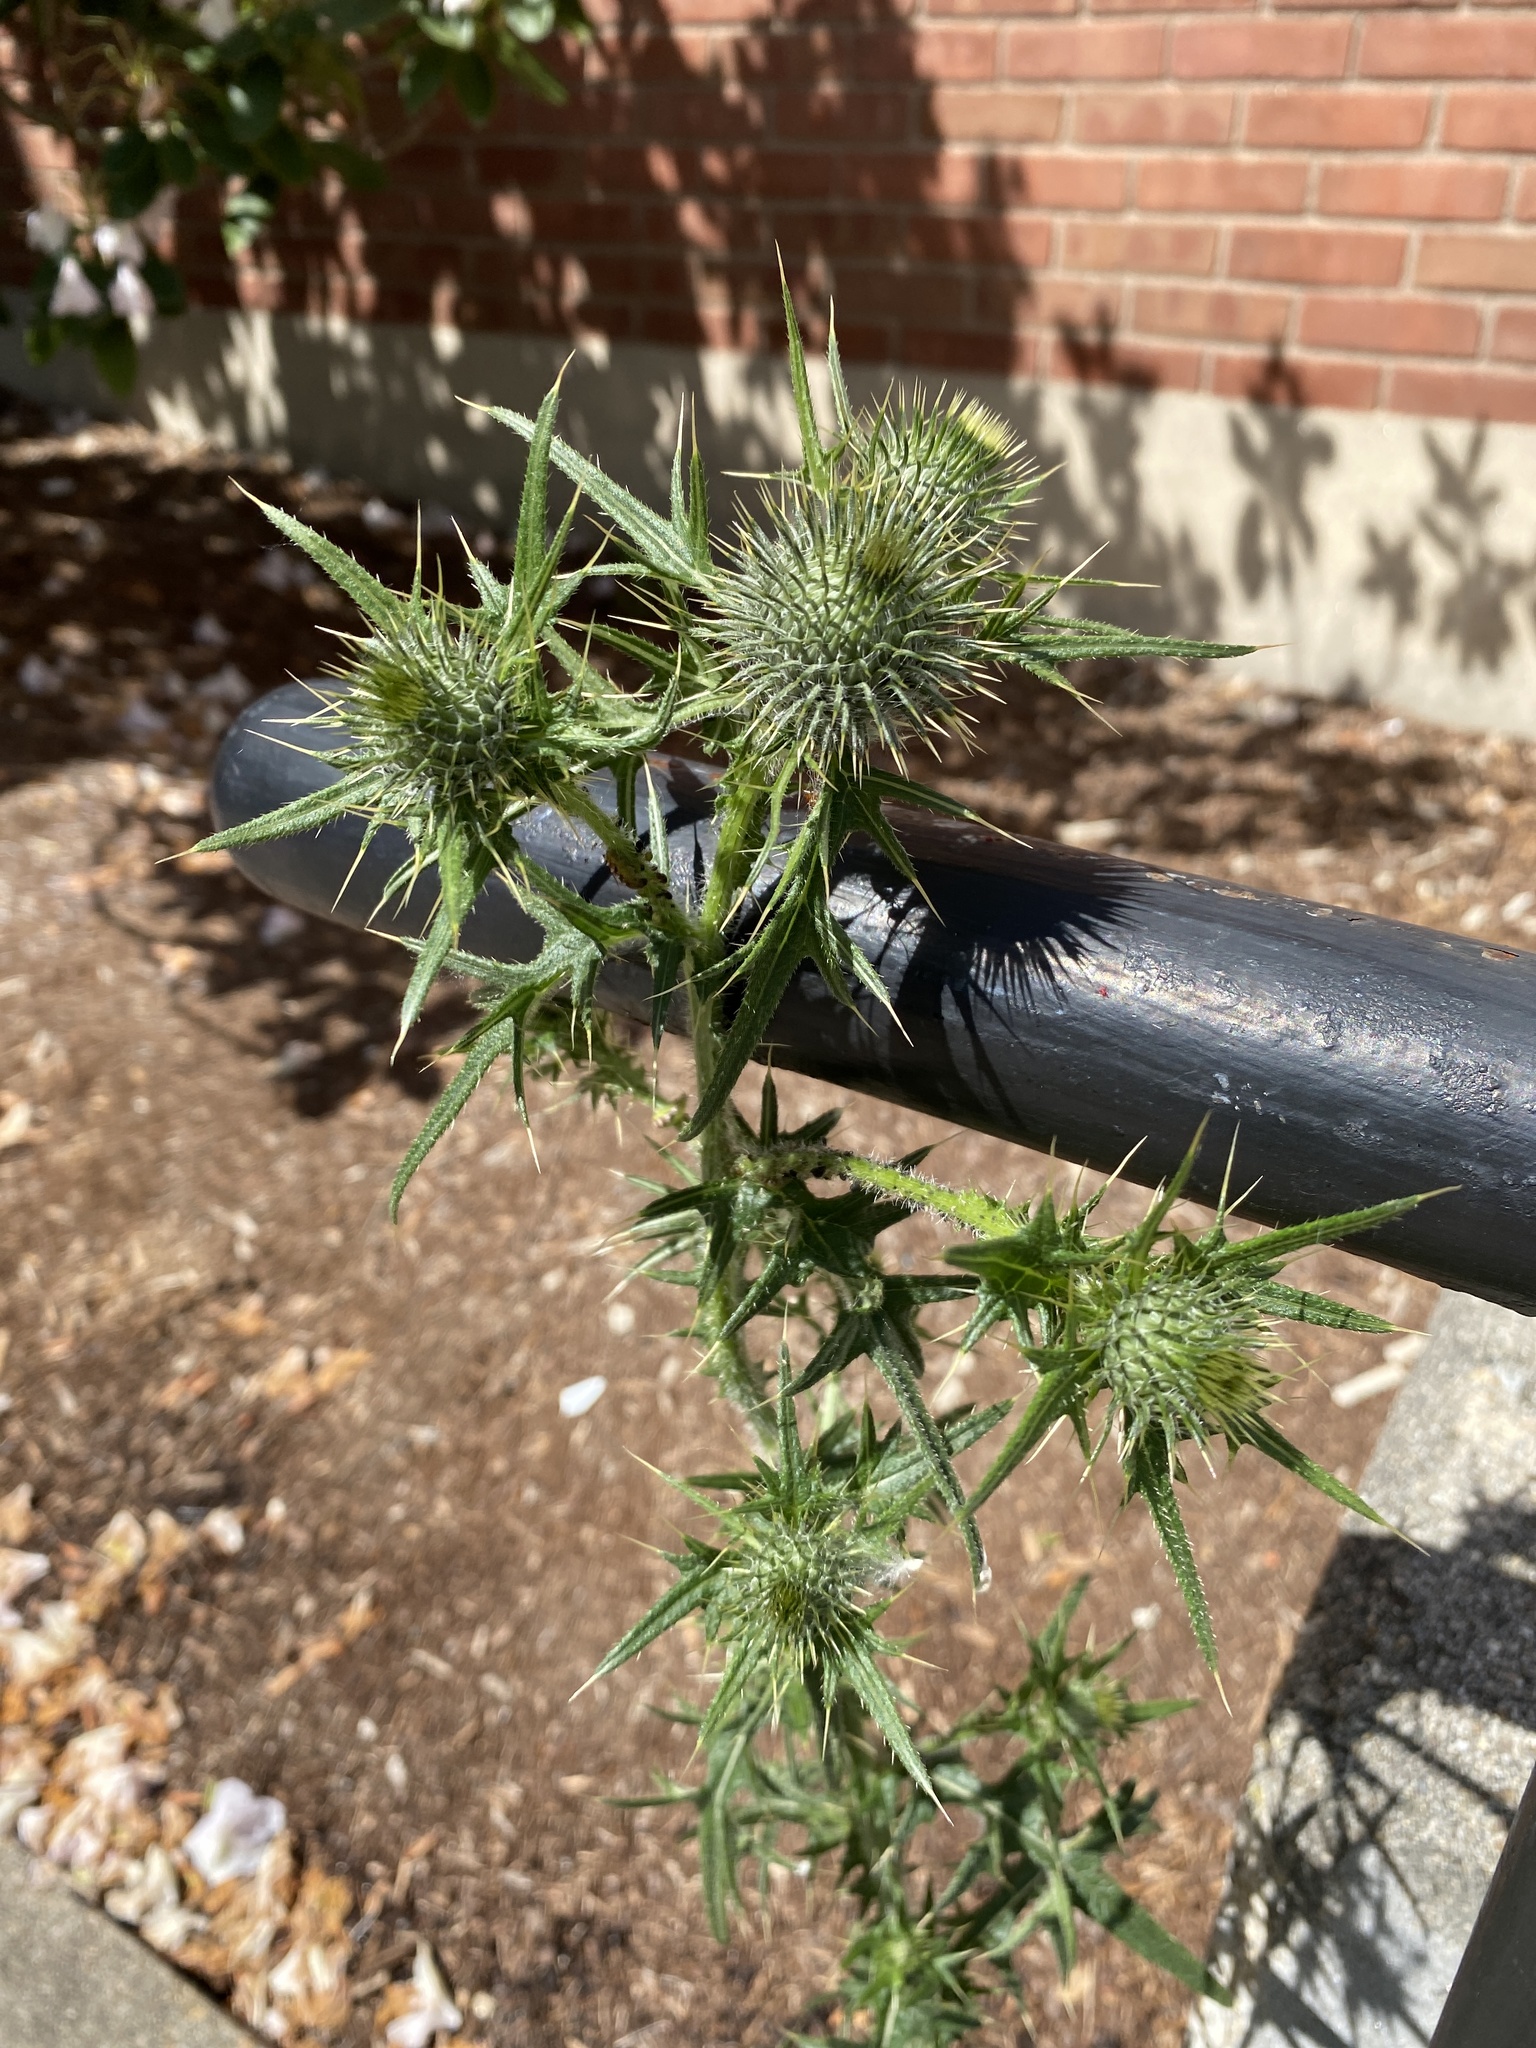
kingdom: Plantae
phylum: Tracheophyta
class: Magnoliopsida
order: Asterales
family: Asteraceae
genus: Cirsium
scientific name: Cirsium vulgare
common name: Bull thistle
